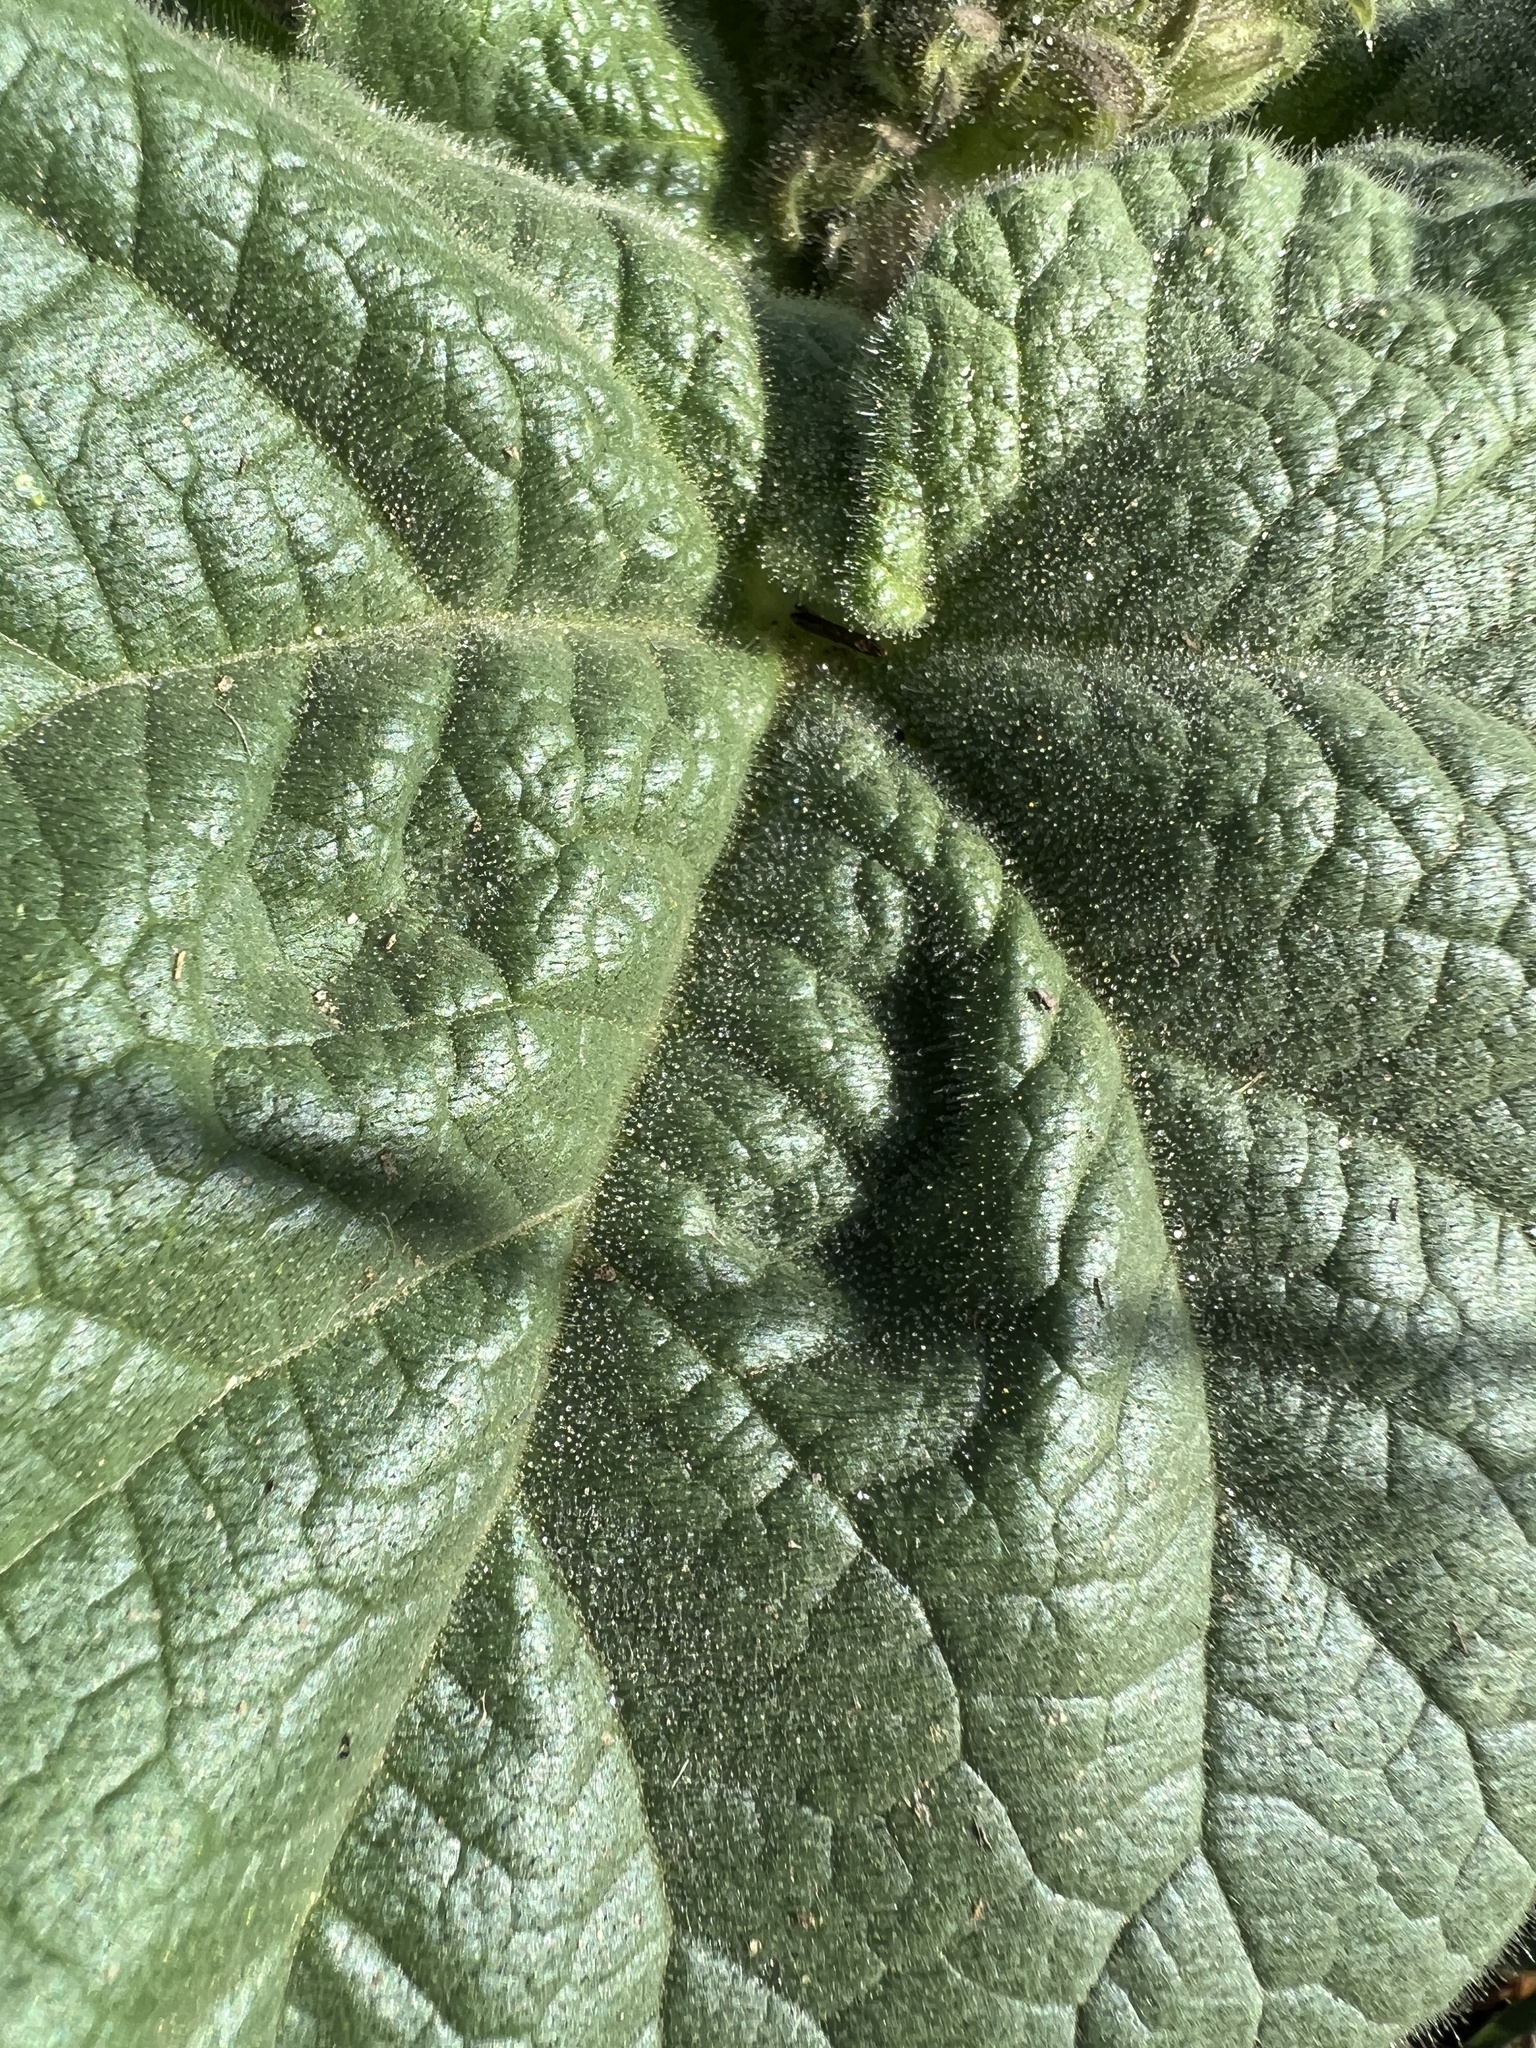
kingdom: Plantae
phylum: Tracheophyta
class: Magnoliopsida
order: Lamiales
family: Martyniaceae
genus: Proboscidea
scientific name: Proboscidea louisianica
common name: Elephant tusks
